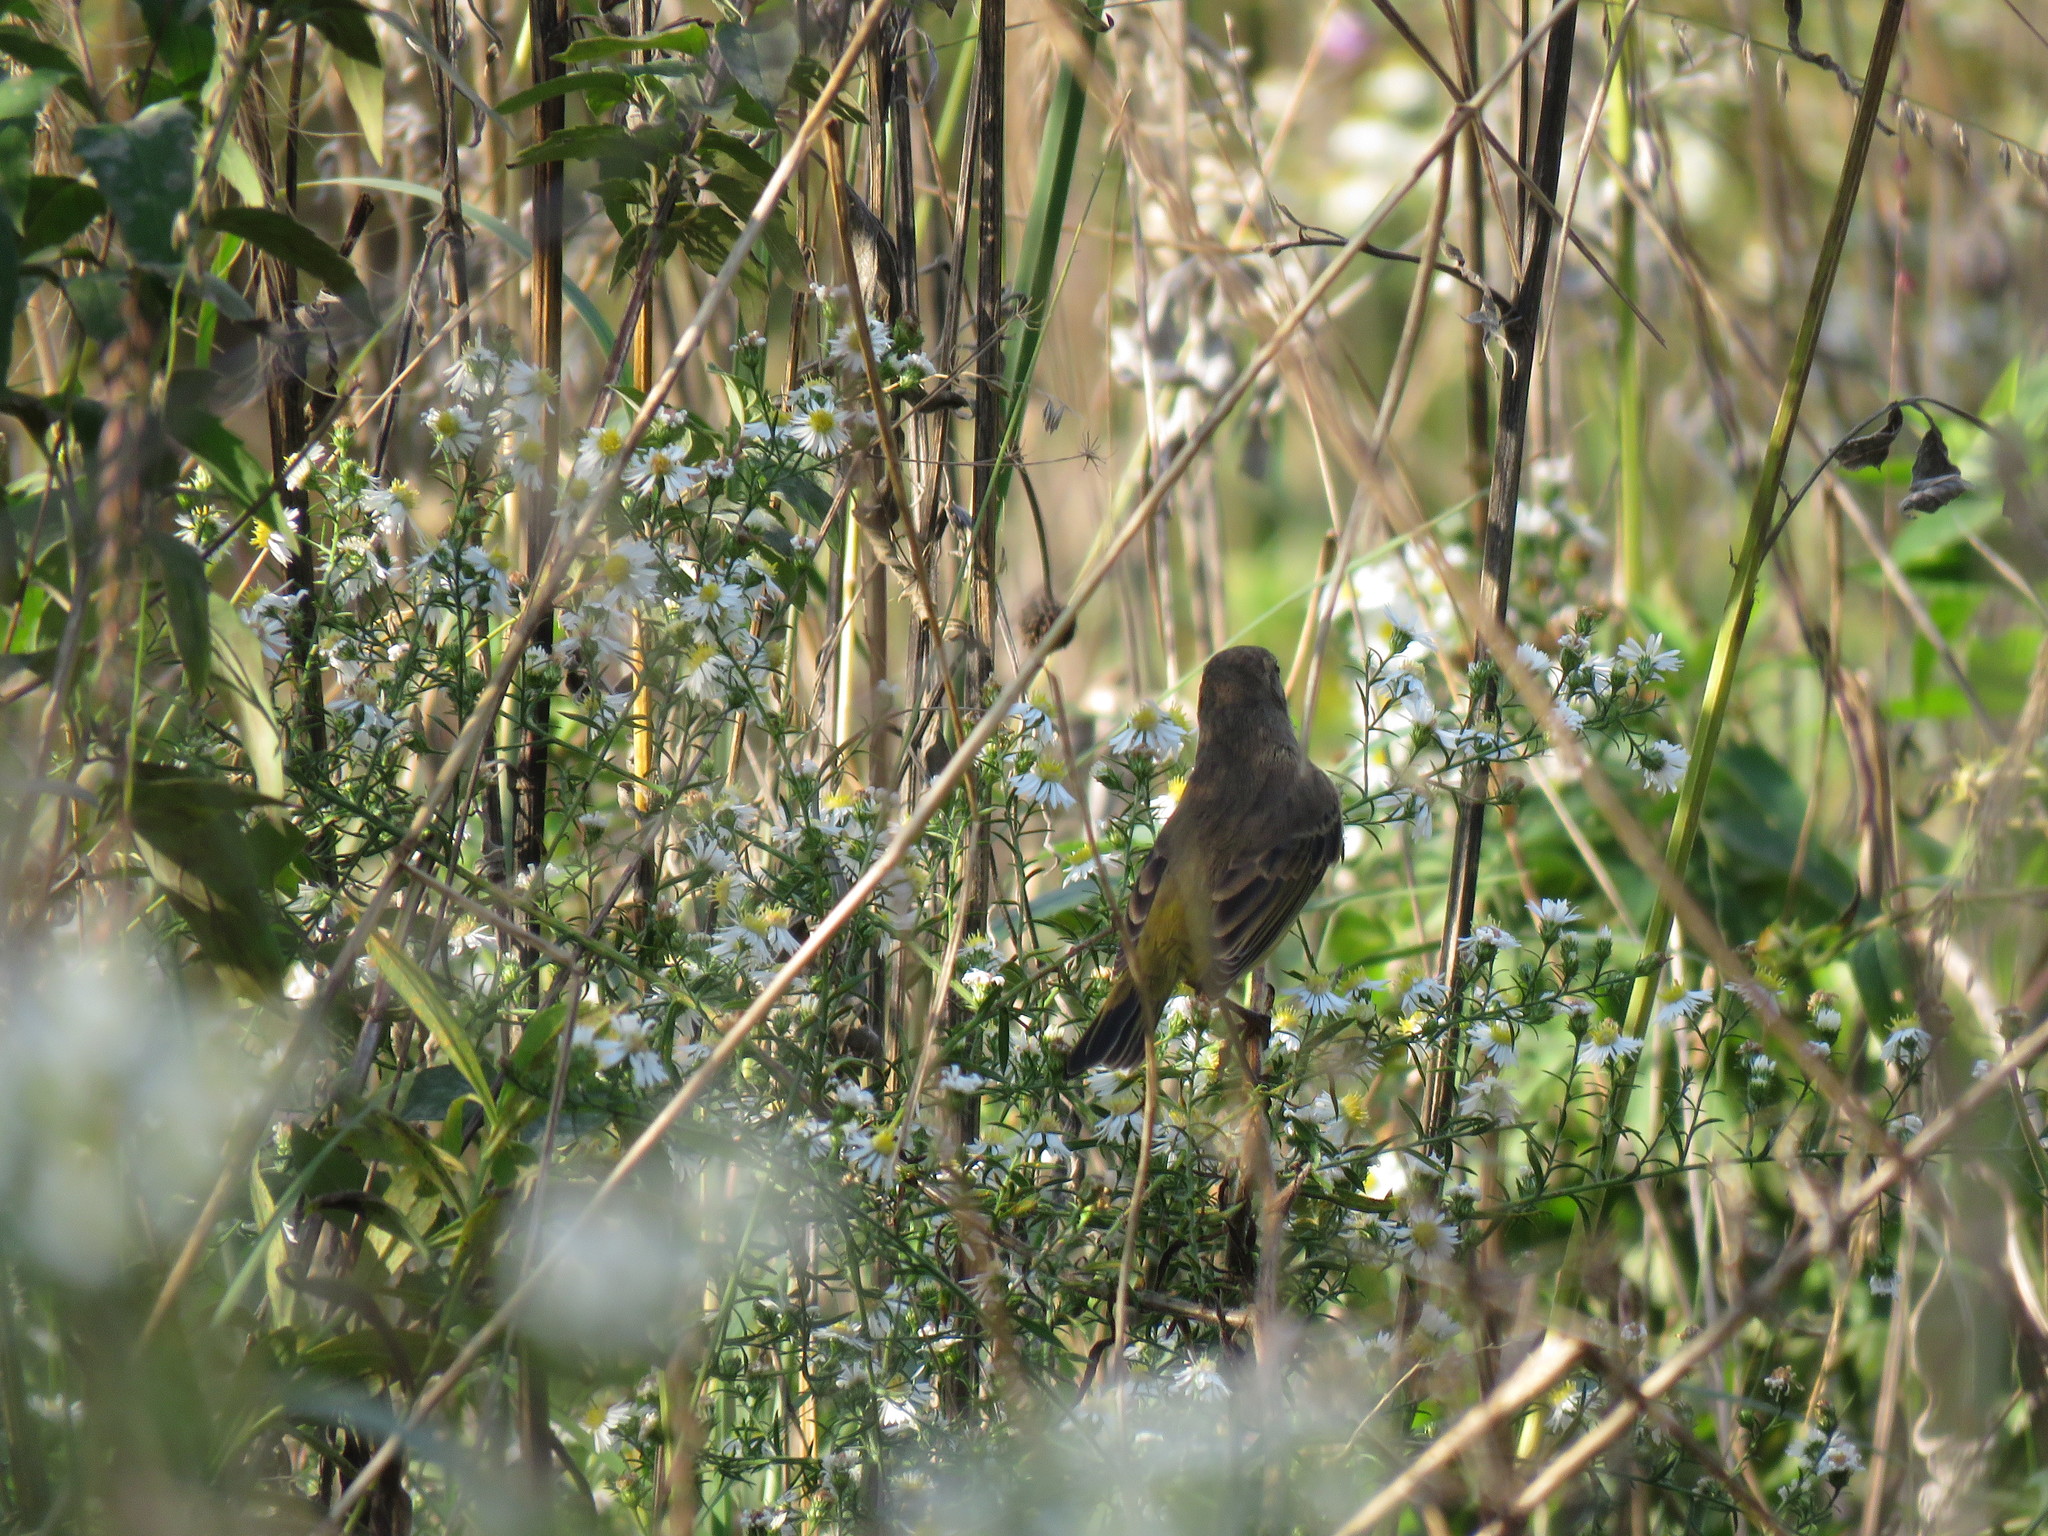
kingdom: Animalia
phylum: Chordata
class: Aves
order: Passeriformes
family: Parulidae
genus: Setophaga
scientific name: Setophaga palmarum
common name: Palm warbler
